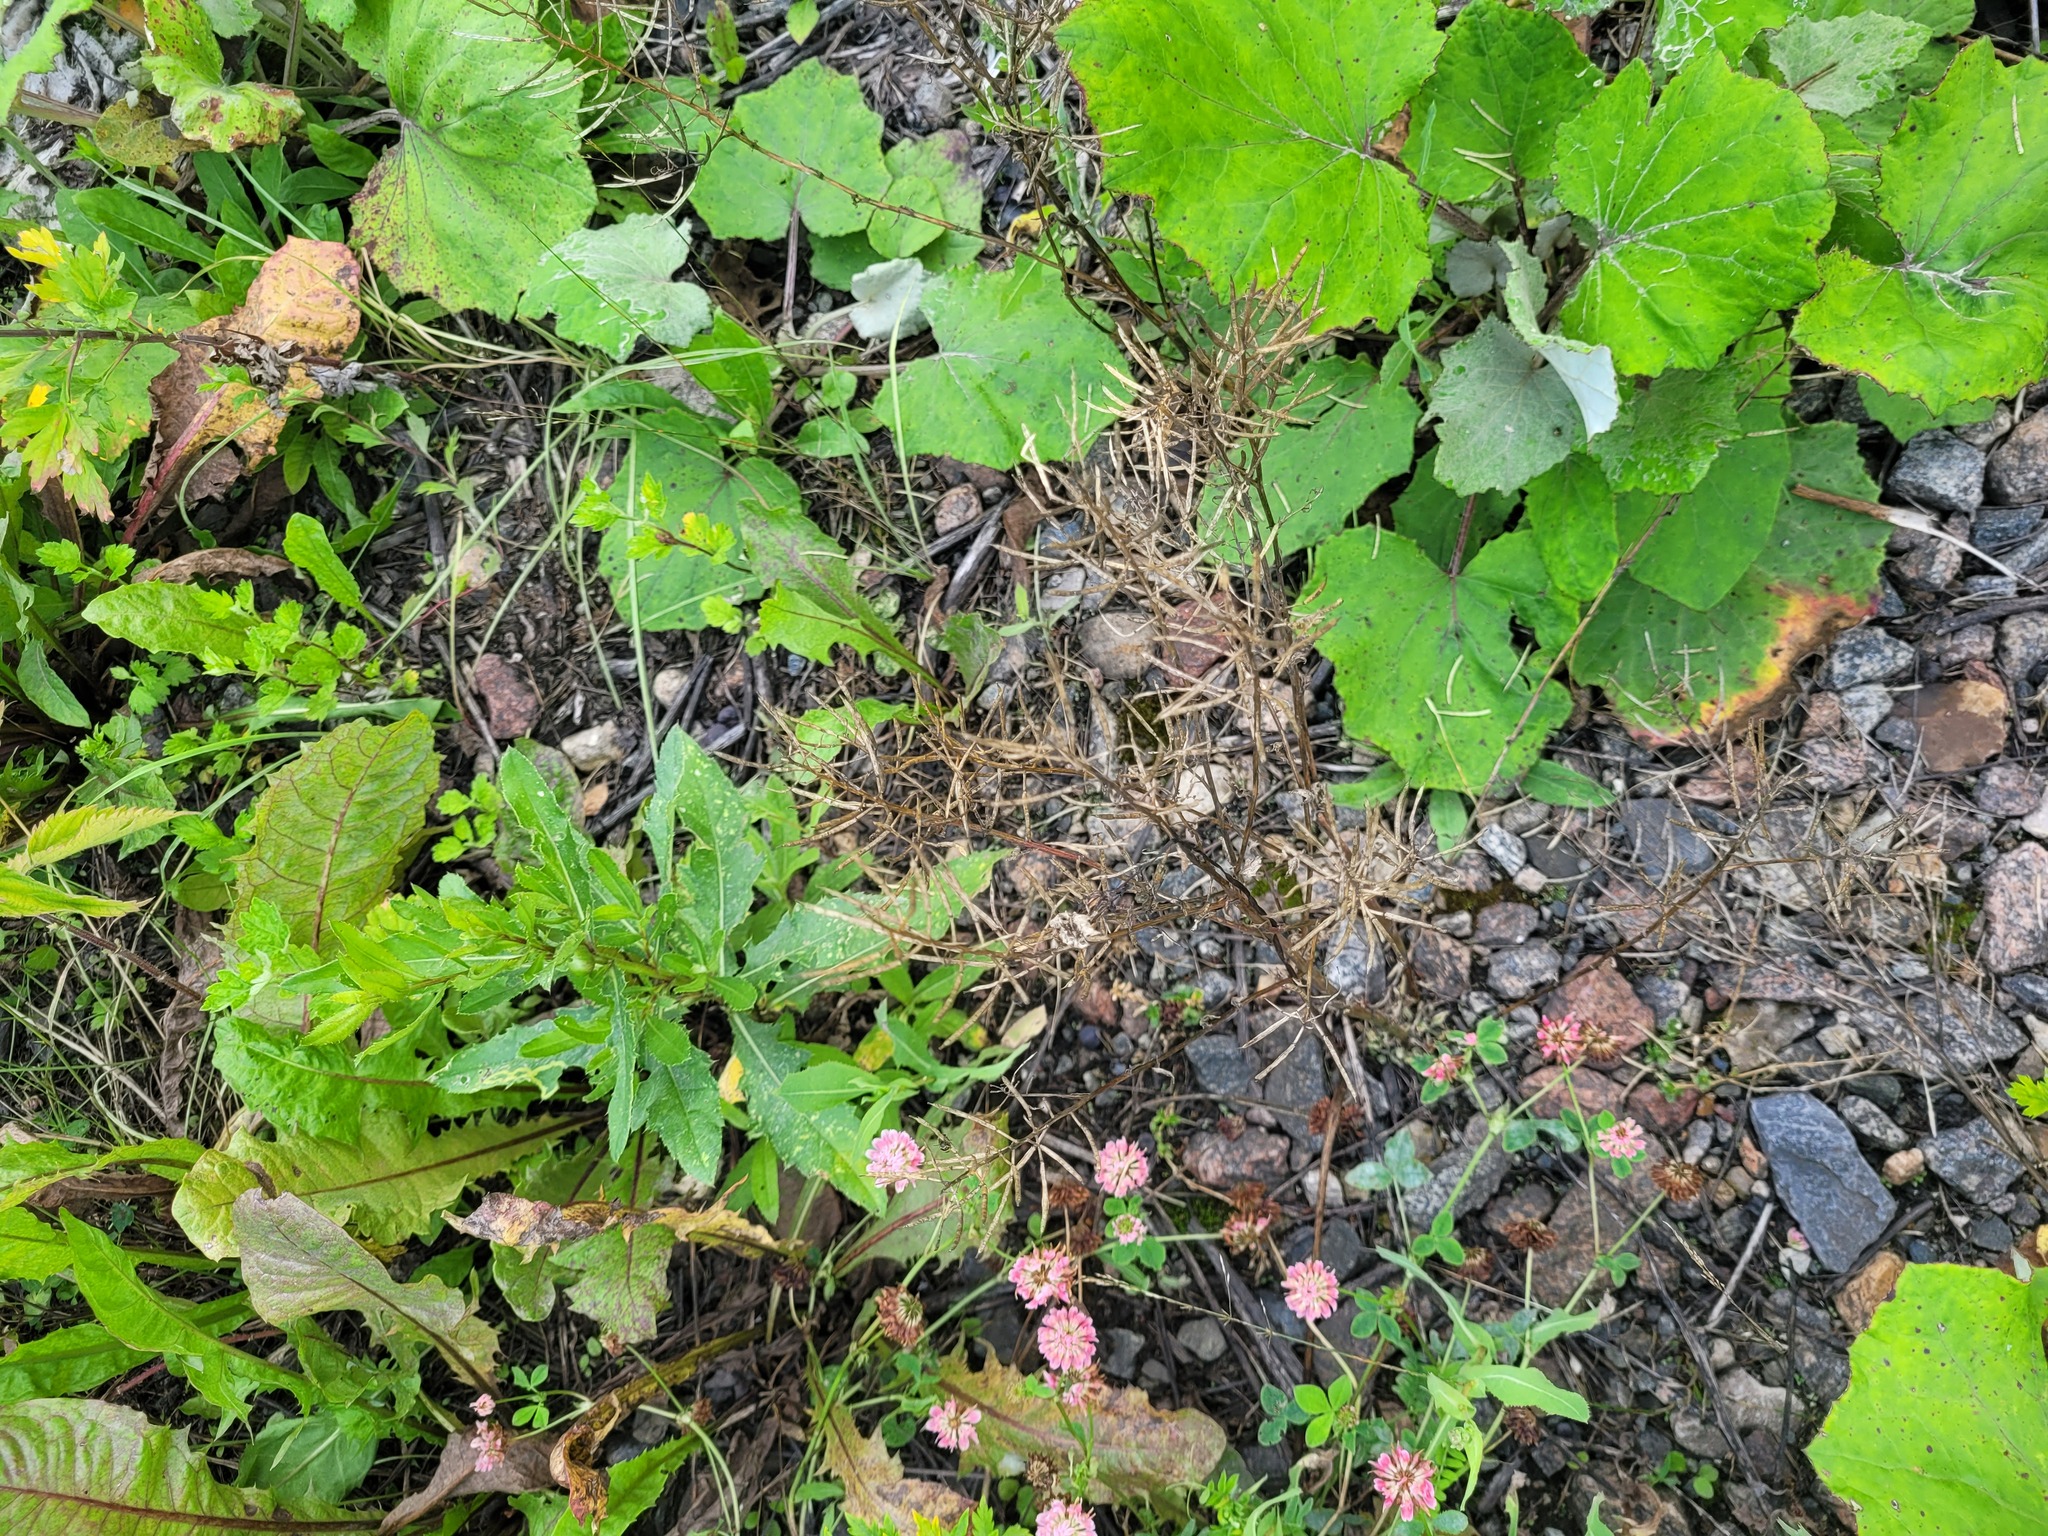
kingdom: Plantae
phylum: Tracheophyta
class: Magnoliopsida
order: Brassicales
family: Brassicaceae
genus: Barbarea
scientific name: Barbarea vulgaris
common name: Cressy-greens
